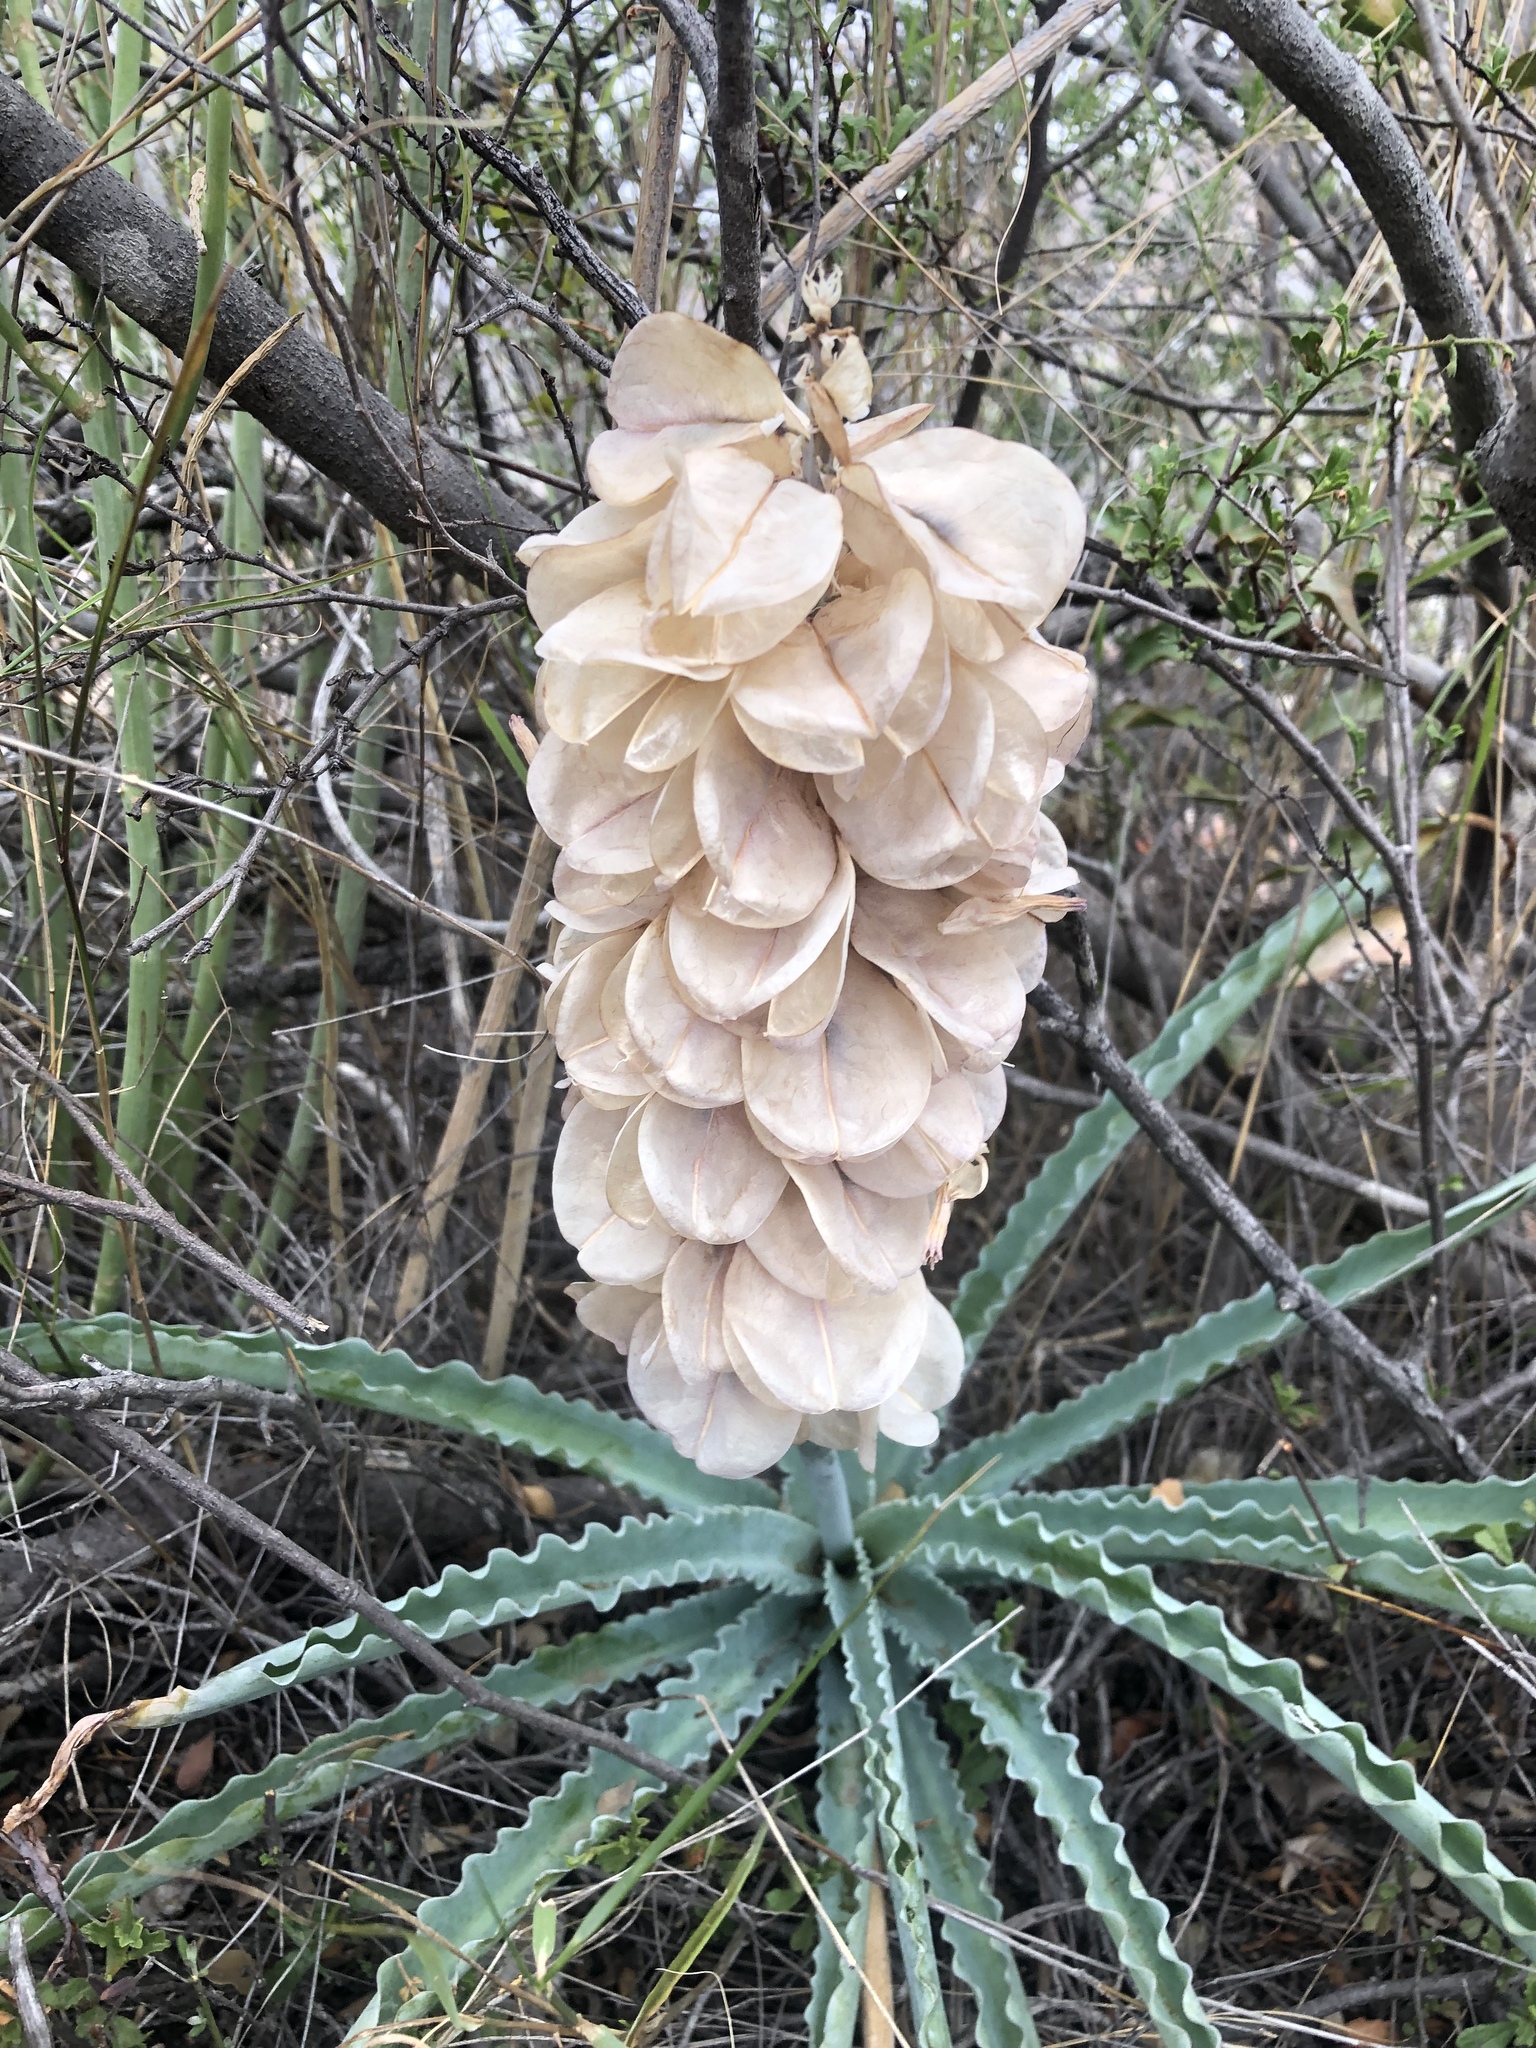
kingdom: Plantae
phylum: Tracheophyta
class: Liliopsida
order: Asparagales
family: Asparagaceae
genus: Veltheimia
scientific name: Veltheimia capensis
